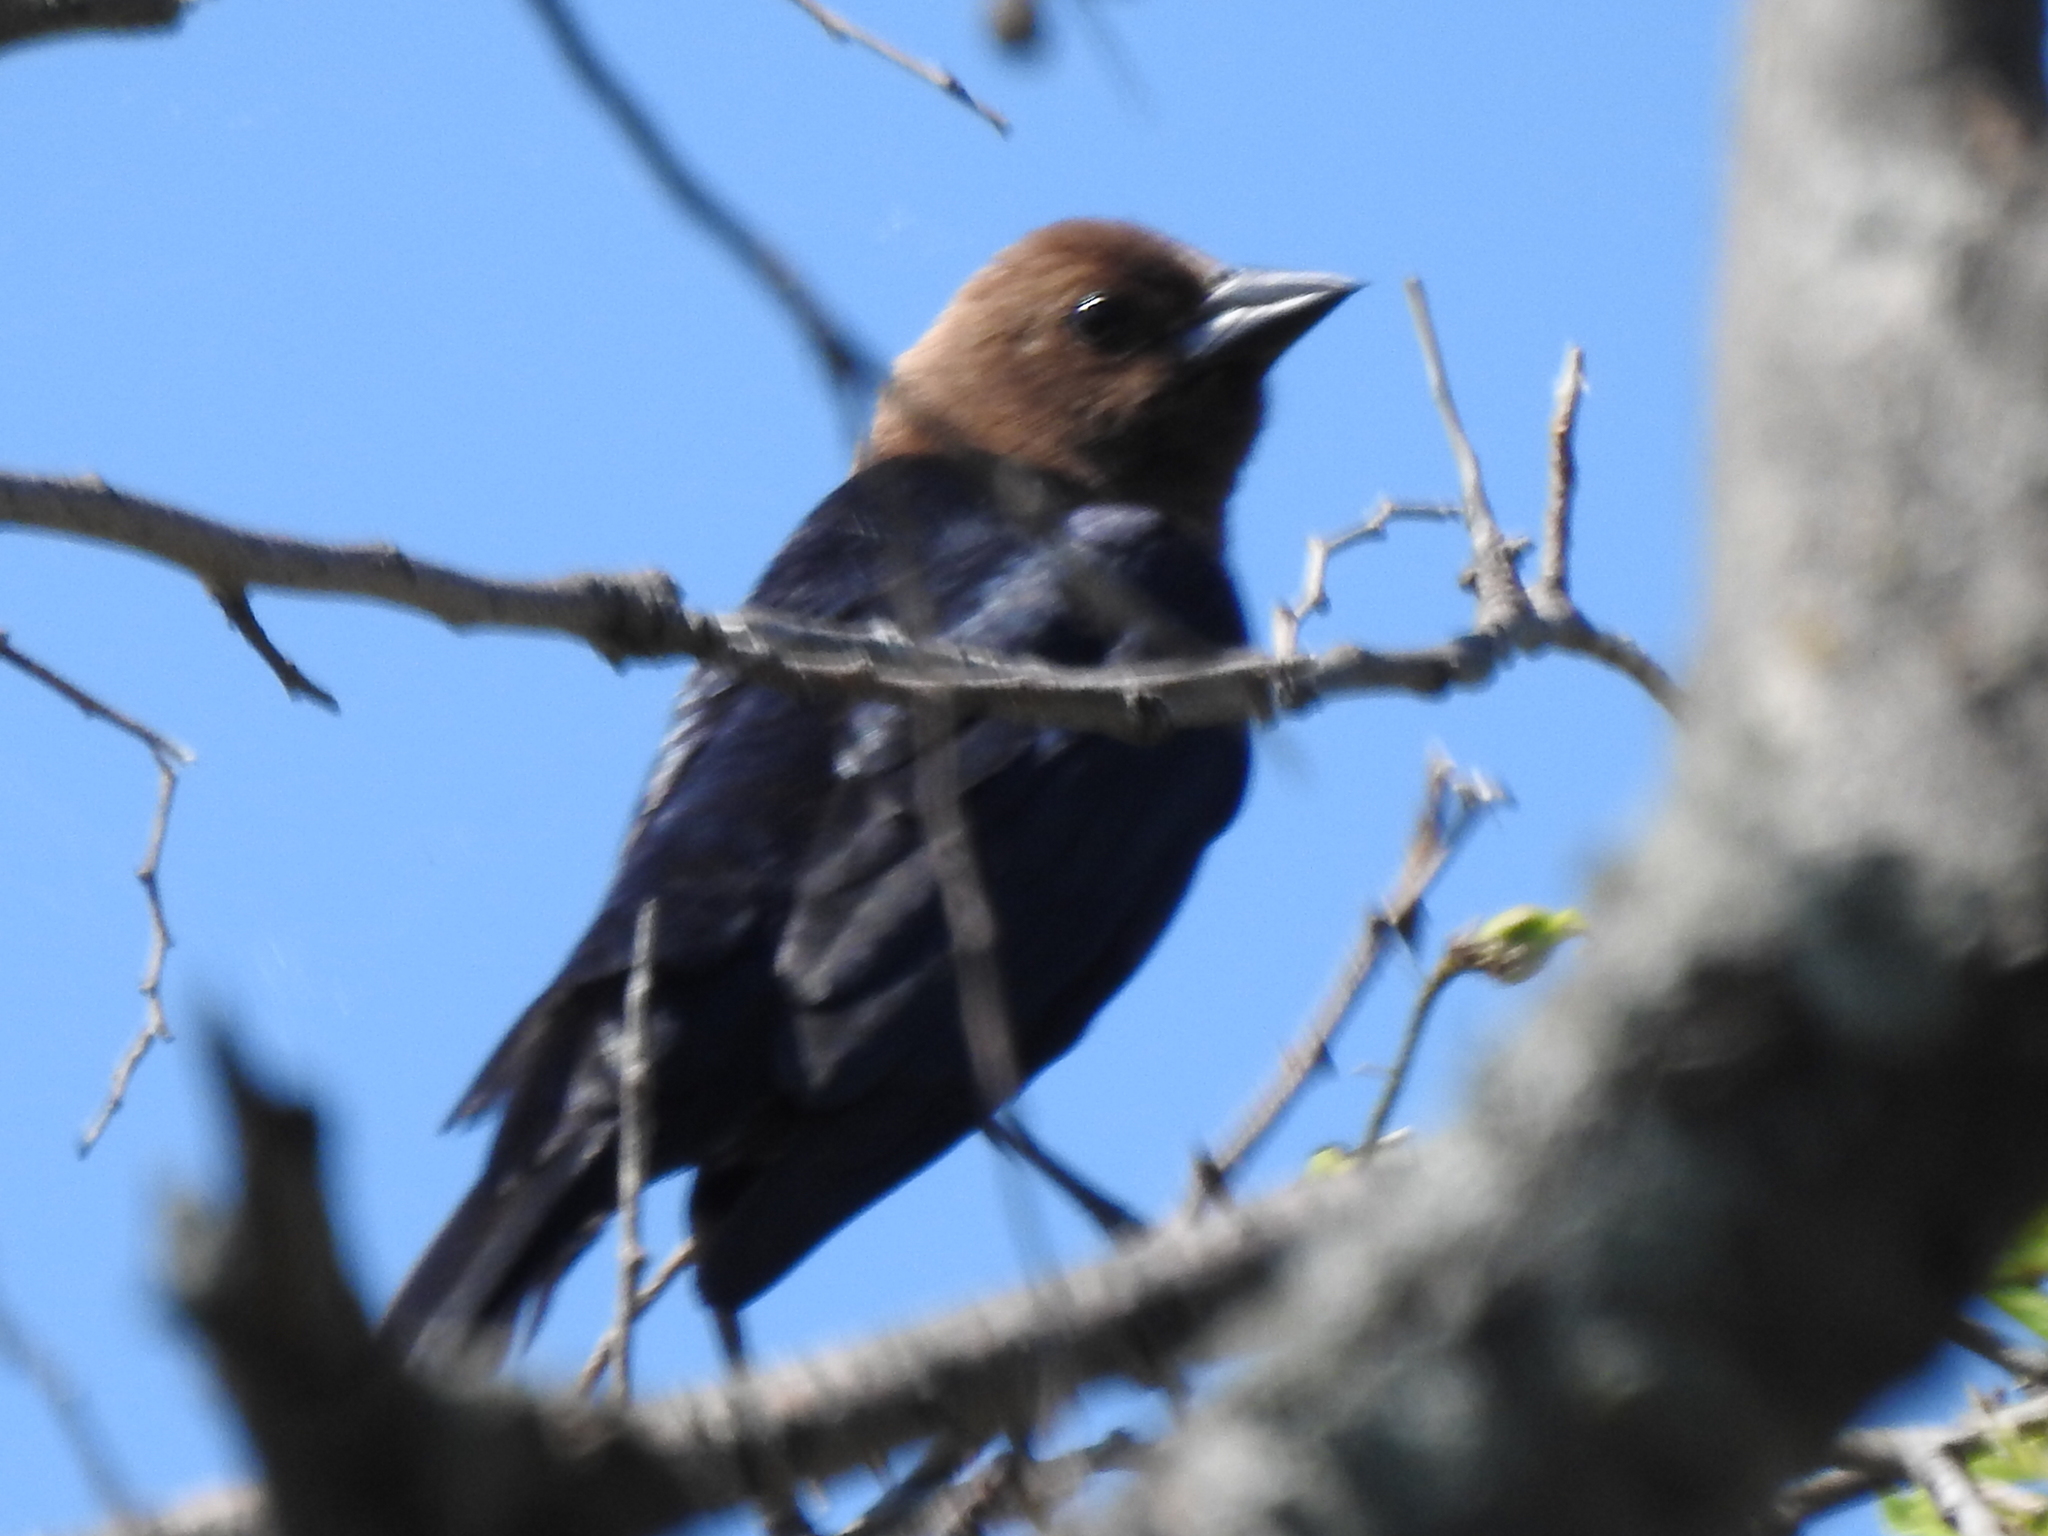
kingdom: Animalia
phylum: Chordata
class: Aves
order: Passeriformes
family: Icteridae
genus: Molothrus
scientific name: Molothrus ater
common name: Brown-headed cowbird
